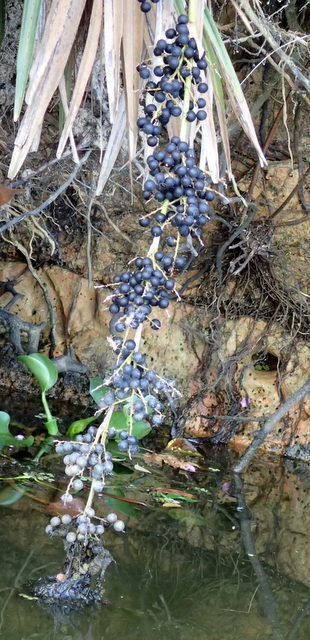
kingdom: Plantae
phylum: Tracheophyta
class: Liliopsida
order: Arecales
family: Arecaceae
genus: Sabal
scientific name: Sabal minor
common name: Dwarf palmetto
